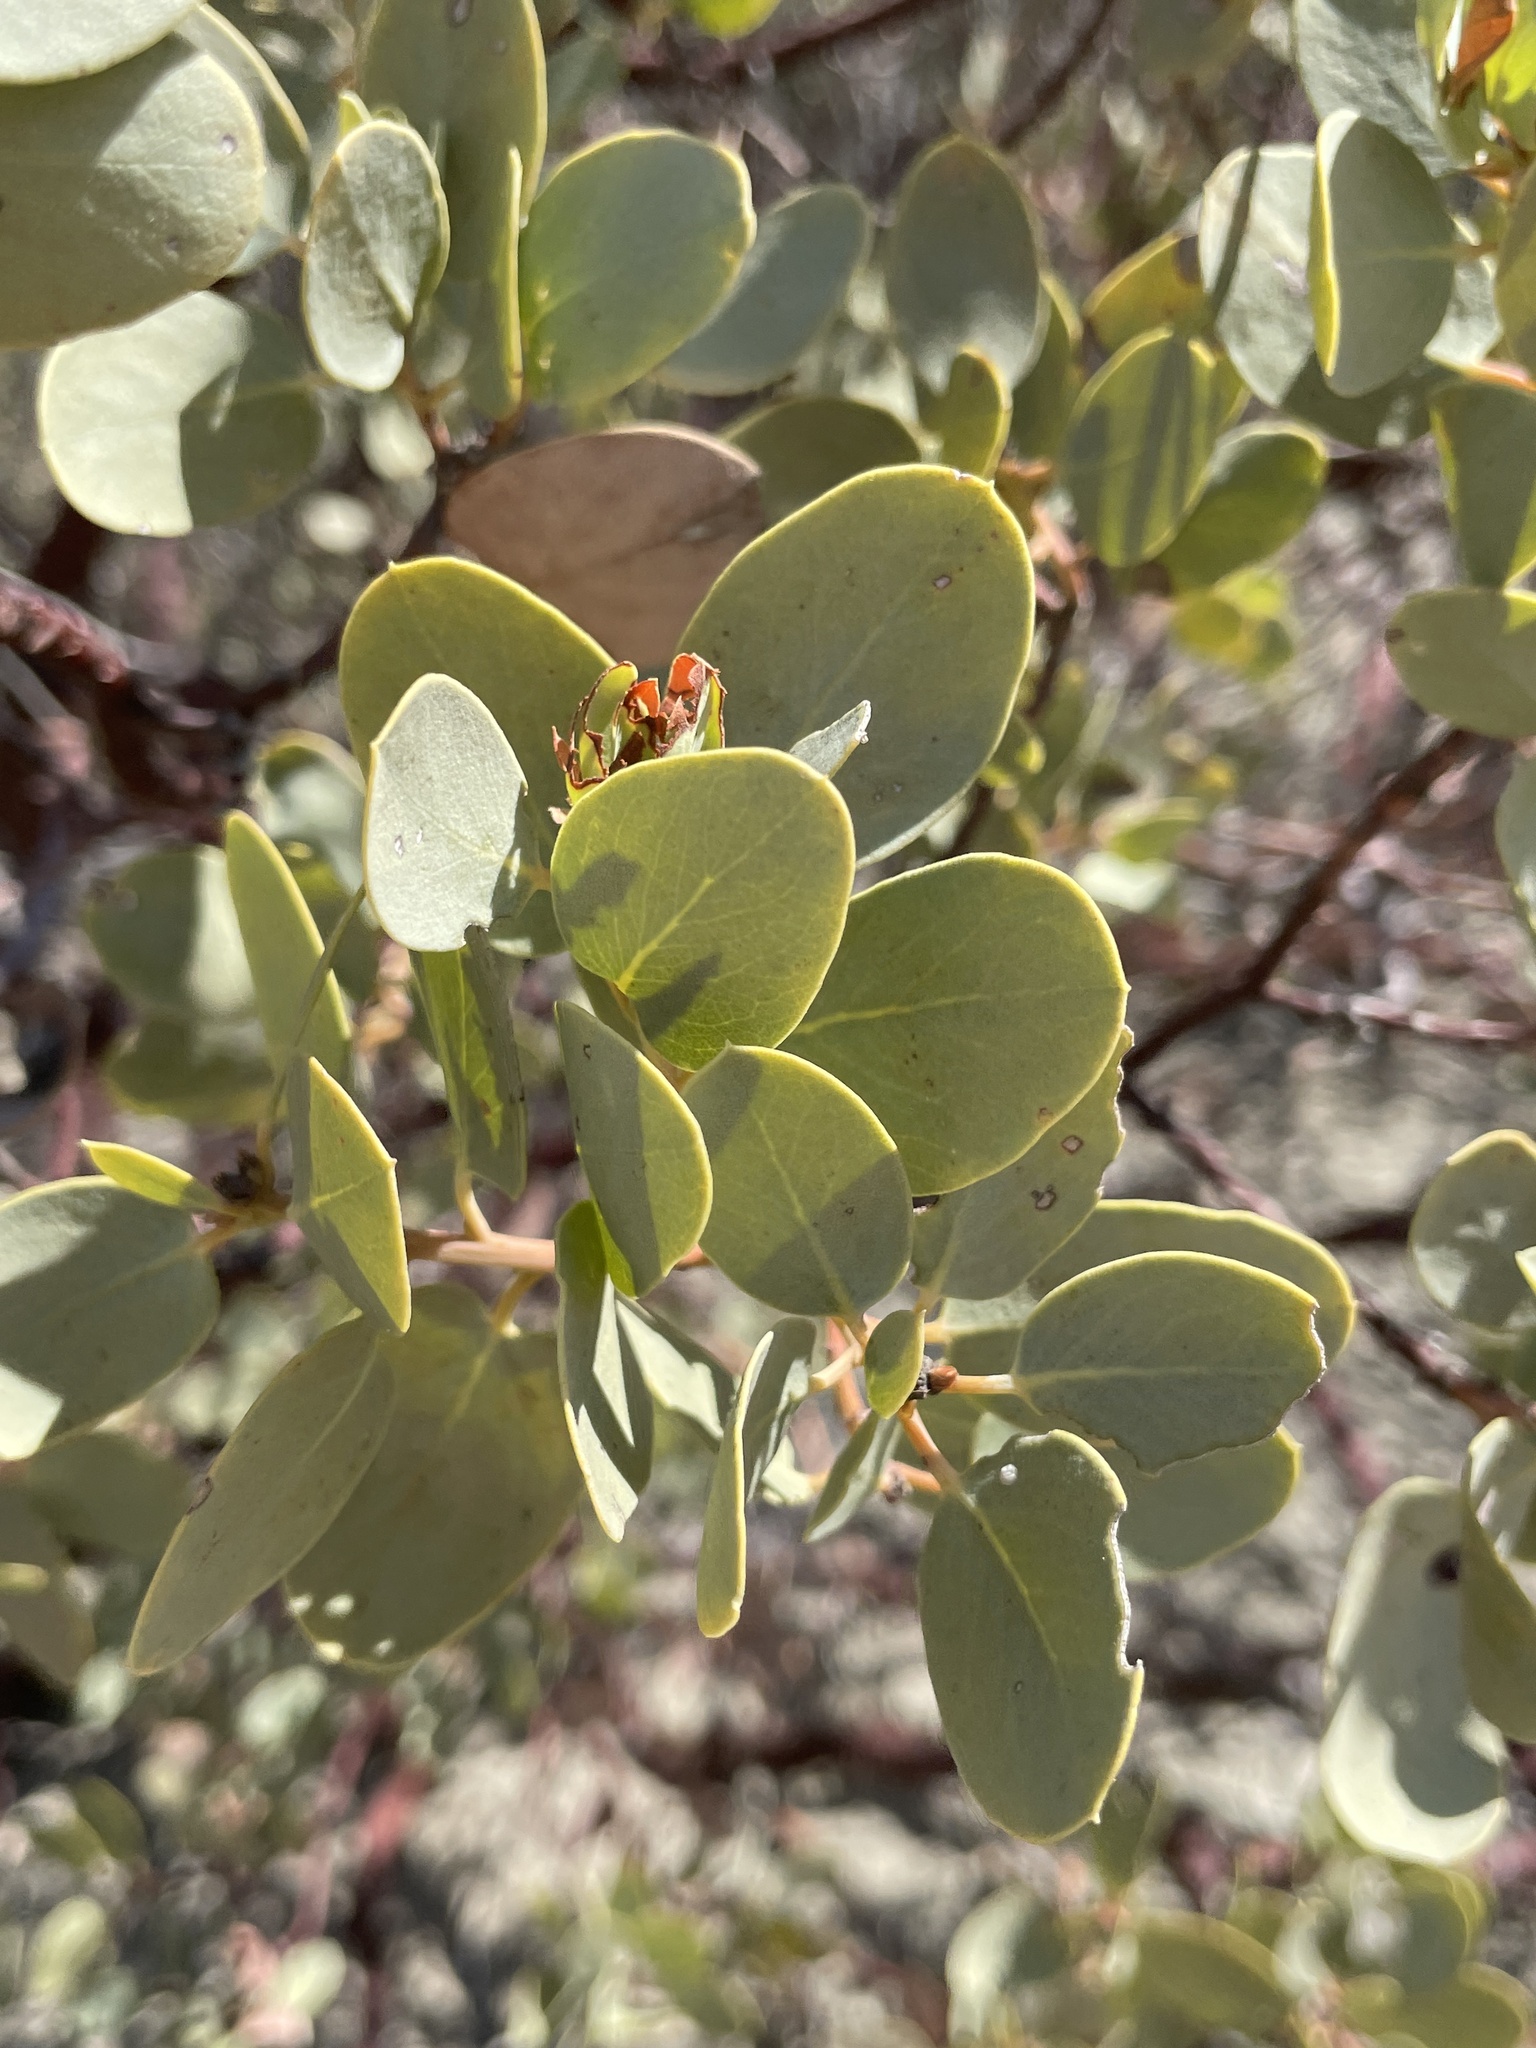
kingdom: Plantae
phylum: Tracheophyta
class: Magnoliopsida
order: Ericales
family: Ericaceae
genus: Arctostaphylos
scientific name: Arctostaphylos glauca
